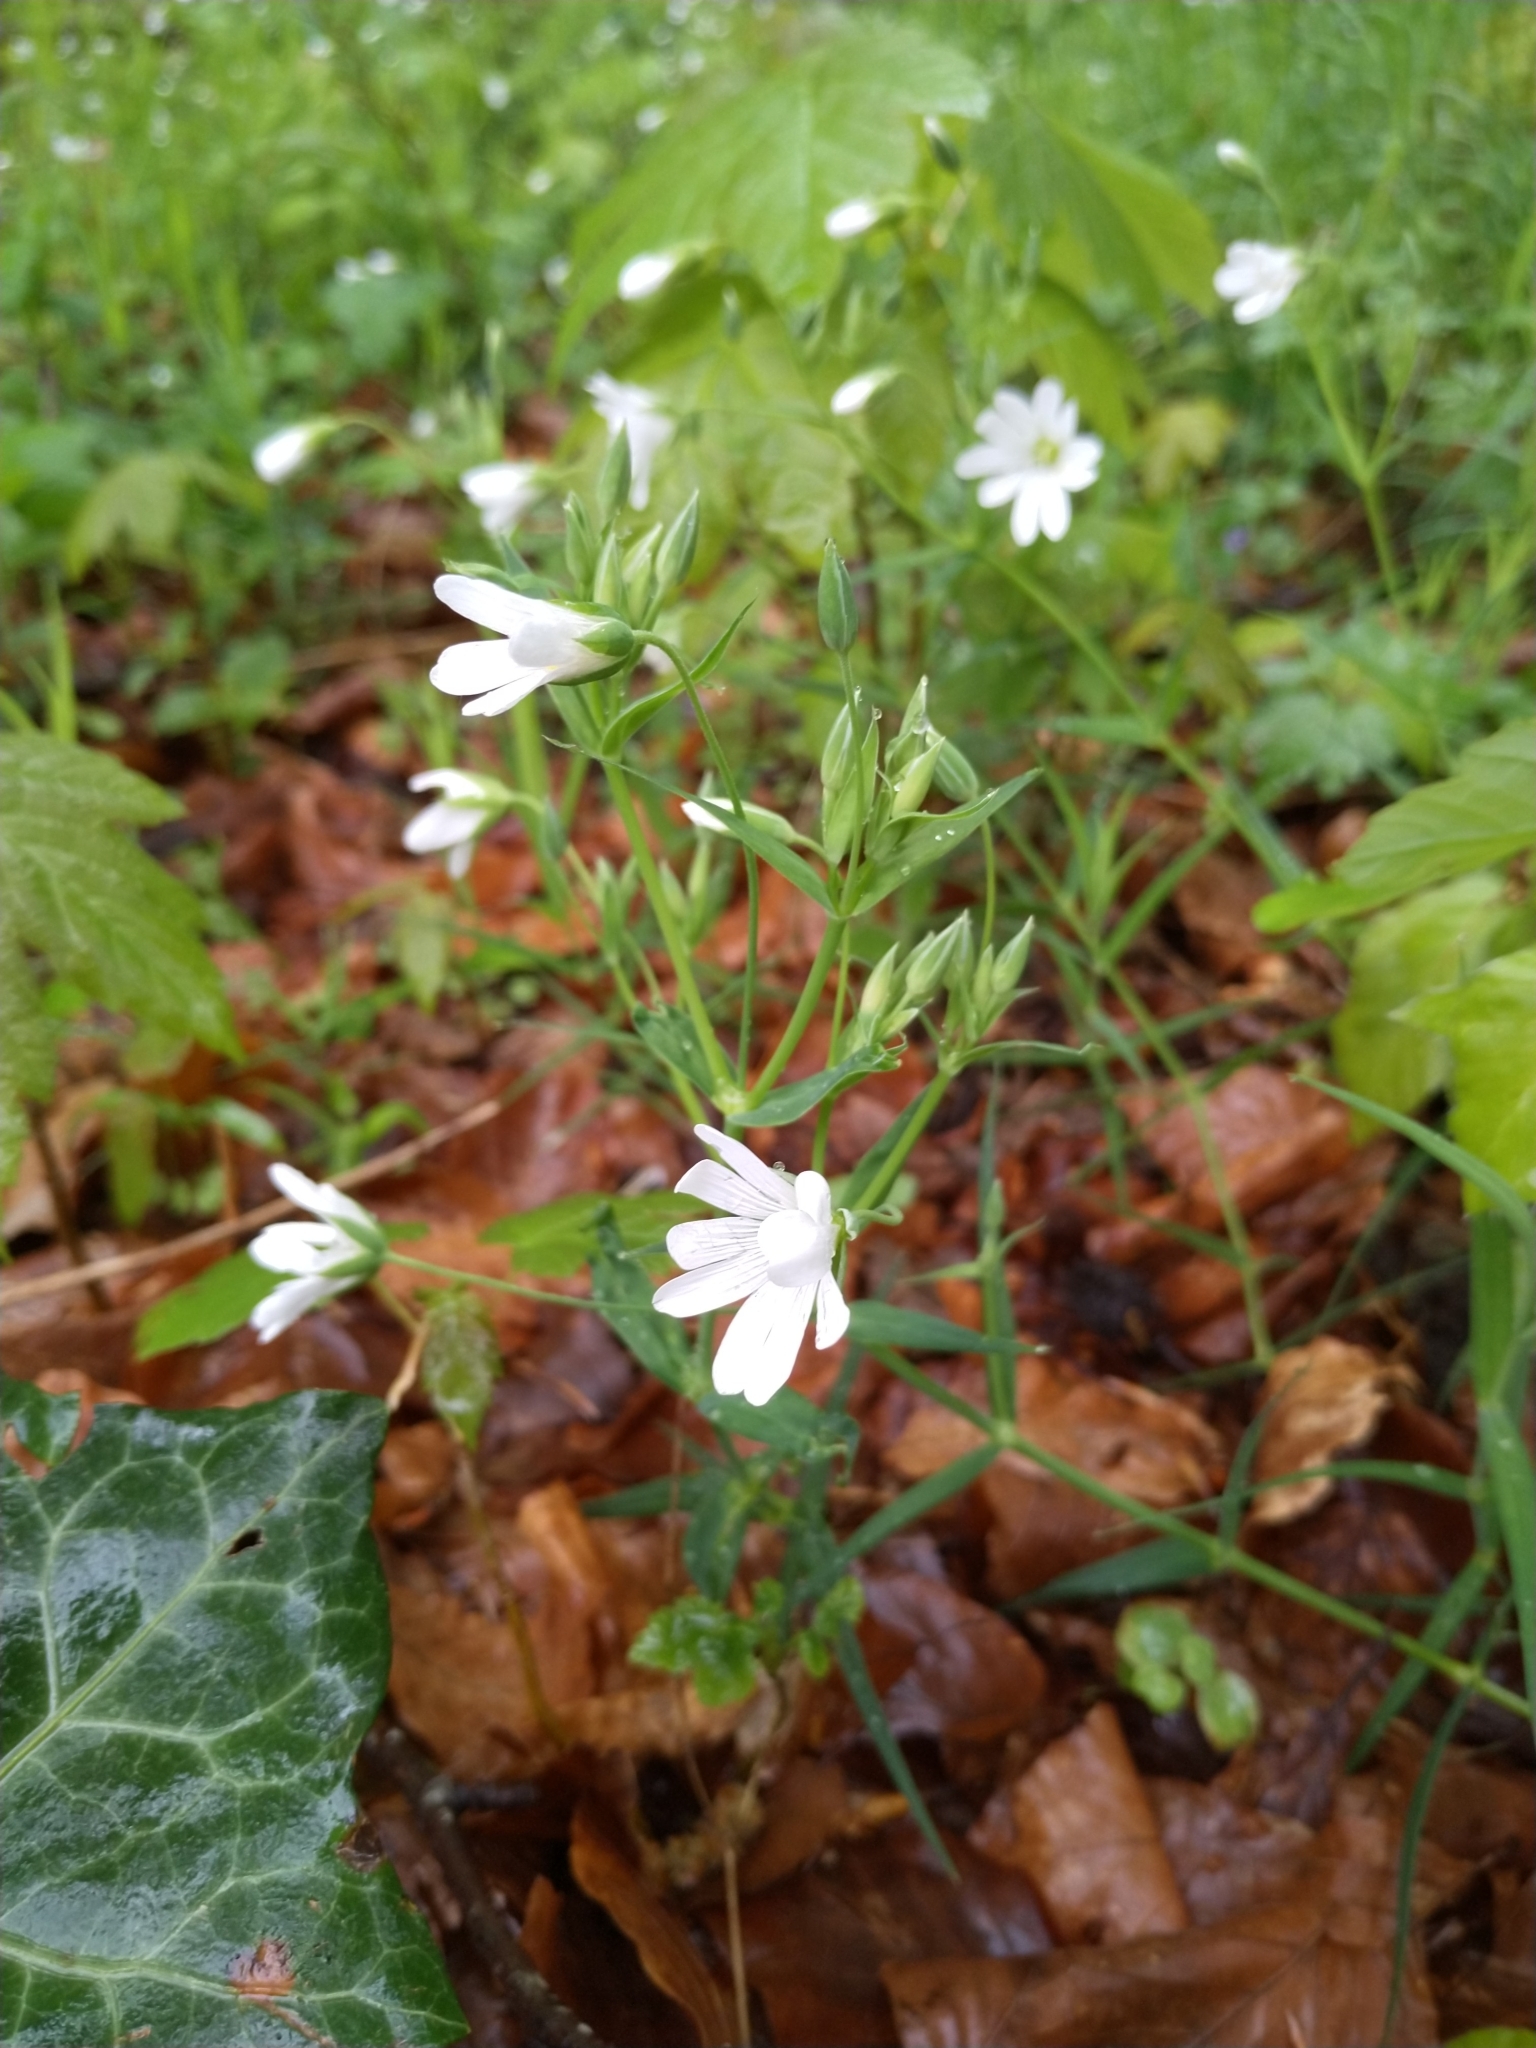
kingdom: Plantae
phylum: Tracheophyta
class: Magnoliopsida
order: Caryophyllales
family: Caryophyllaceae
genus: Rabelera
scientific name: Rabelera holostea
